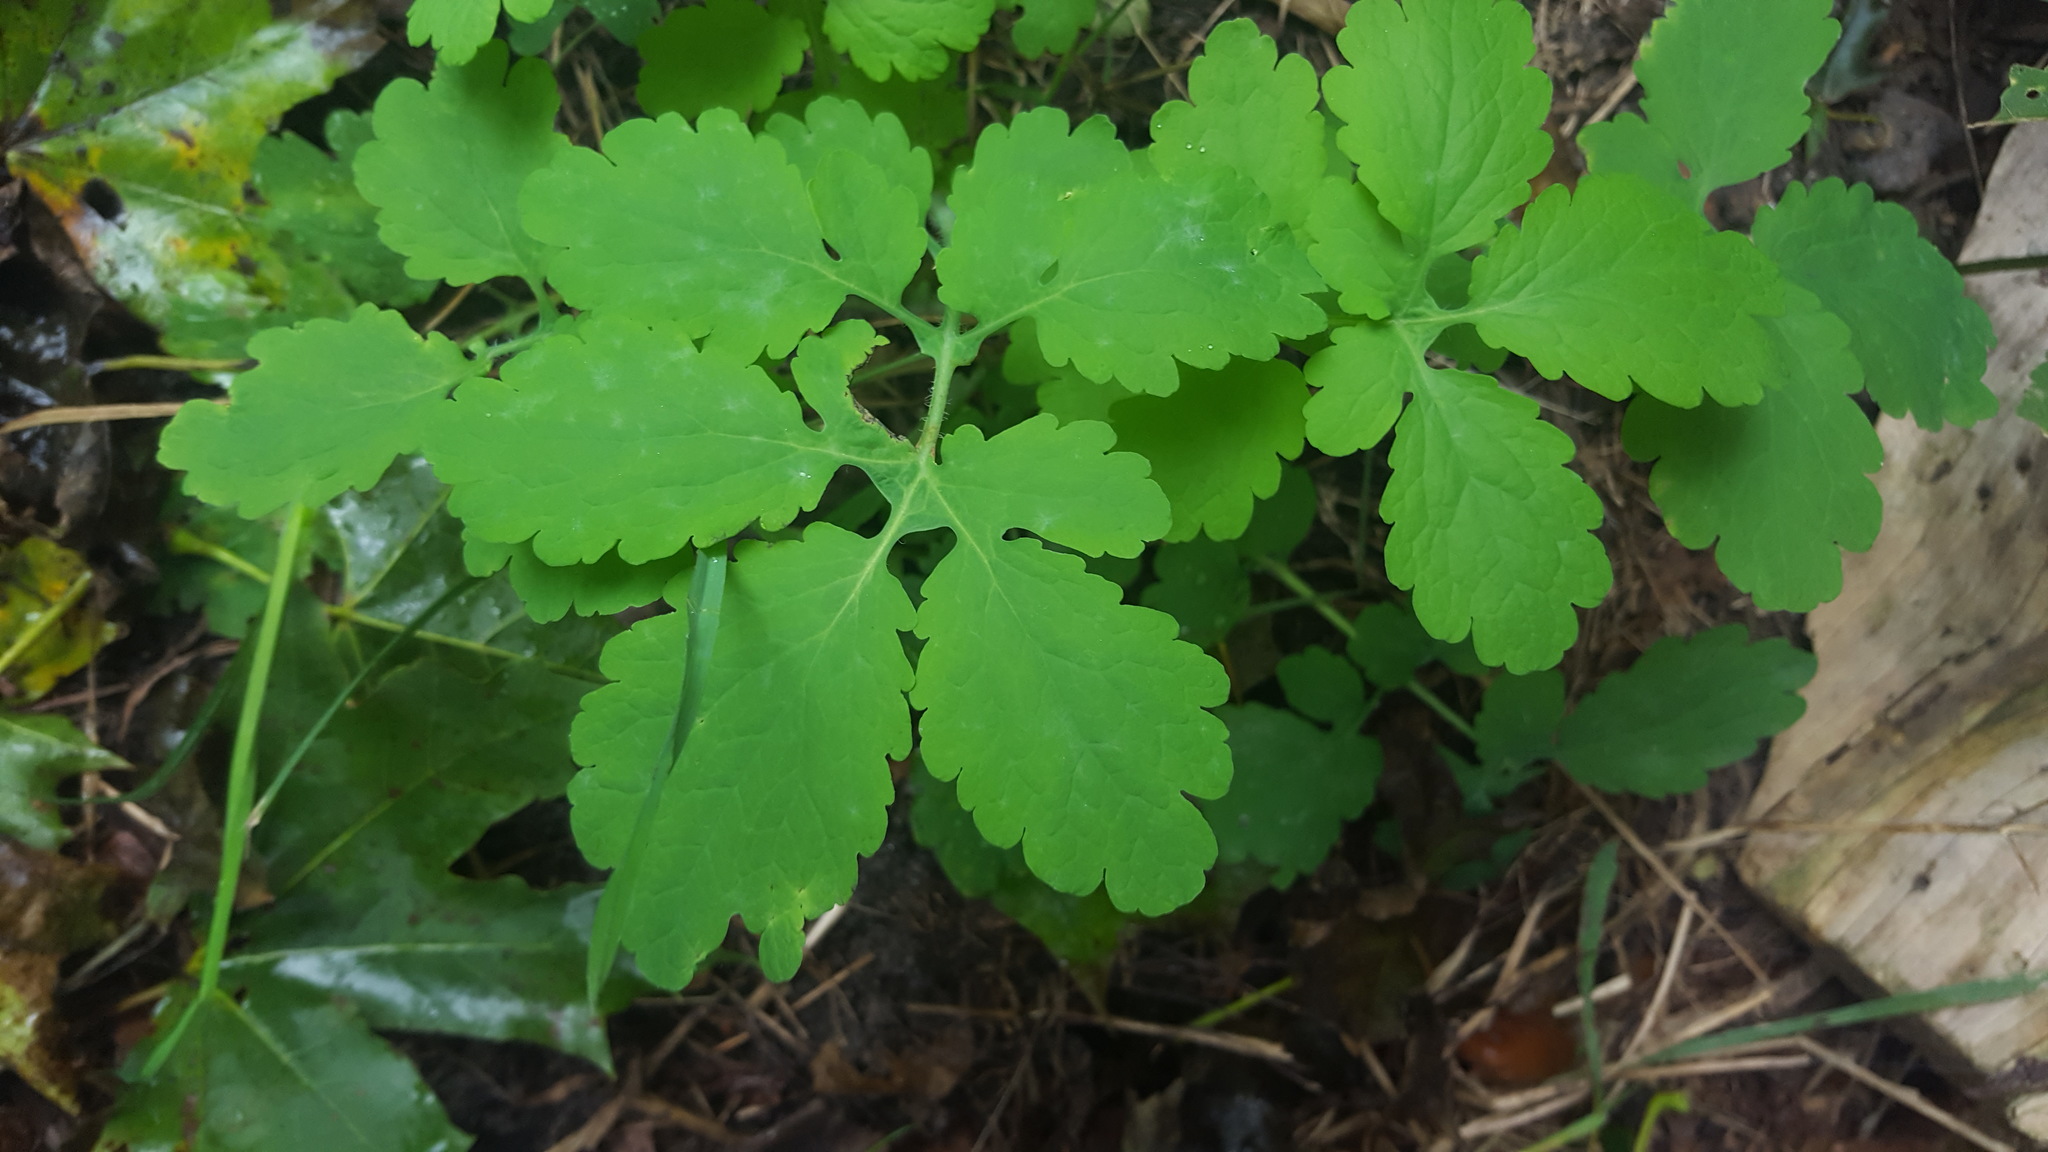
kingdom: Plantae
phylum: Tracheophyta
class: Magnoliopsida
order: Ranunculales
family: Papaveraceae
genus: Chelidonium
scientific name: Chelidonium majus
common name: Greater celandine
